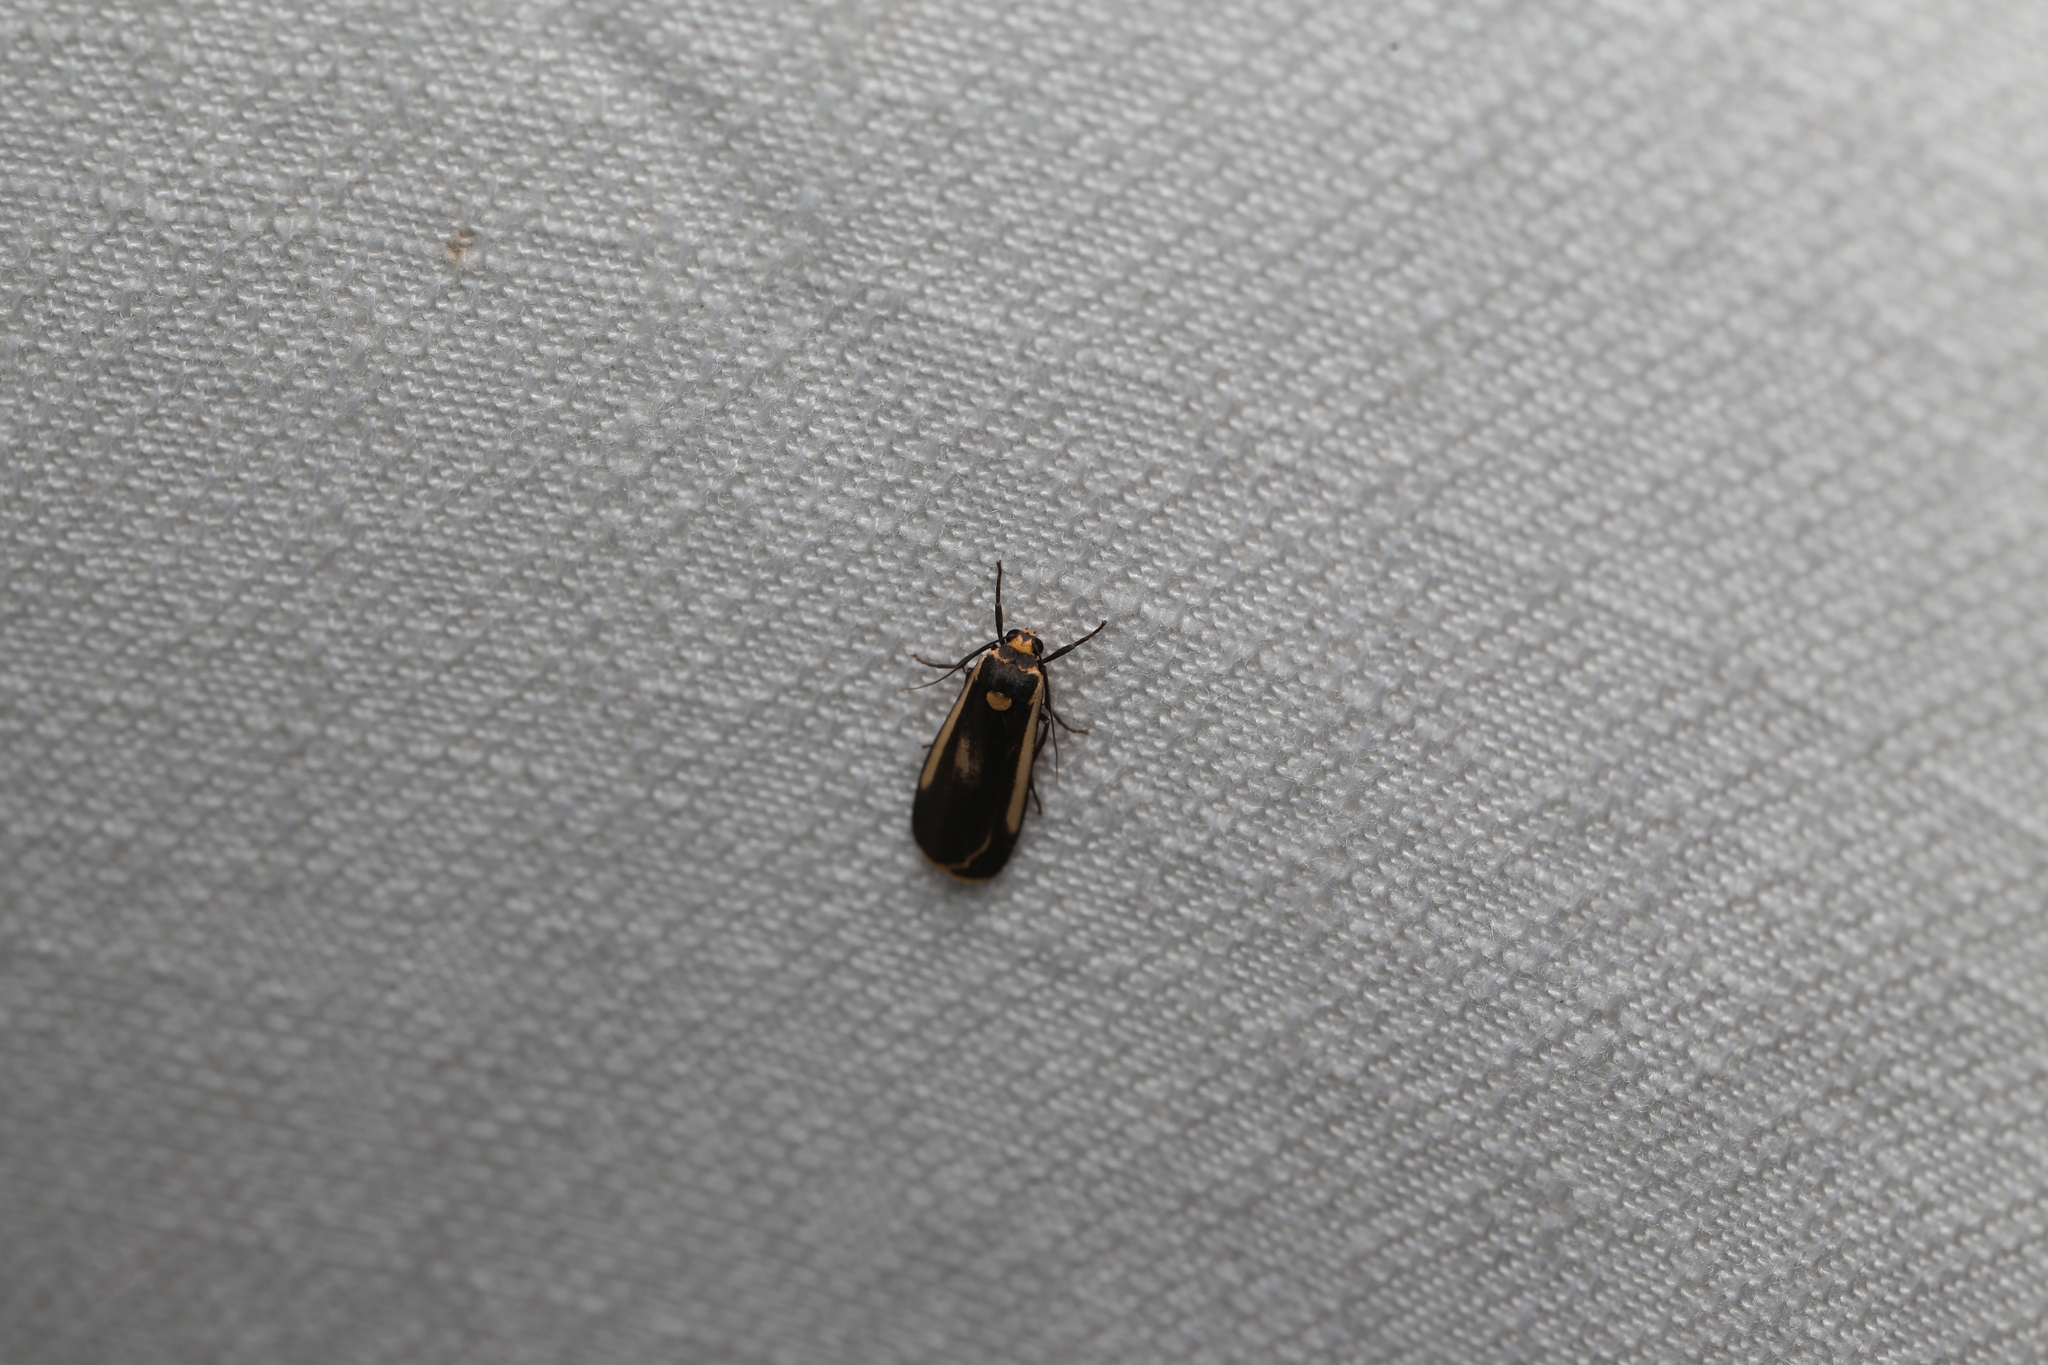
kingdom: Animalia
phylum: Arthropoda
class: Insecta
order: Lepidoptera
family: Erebidae
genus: Brunia
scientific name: Brunia replana
